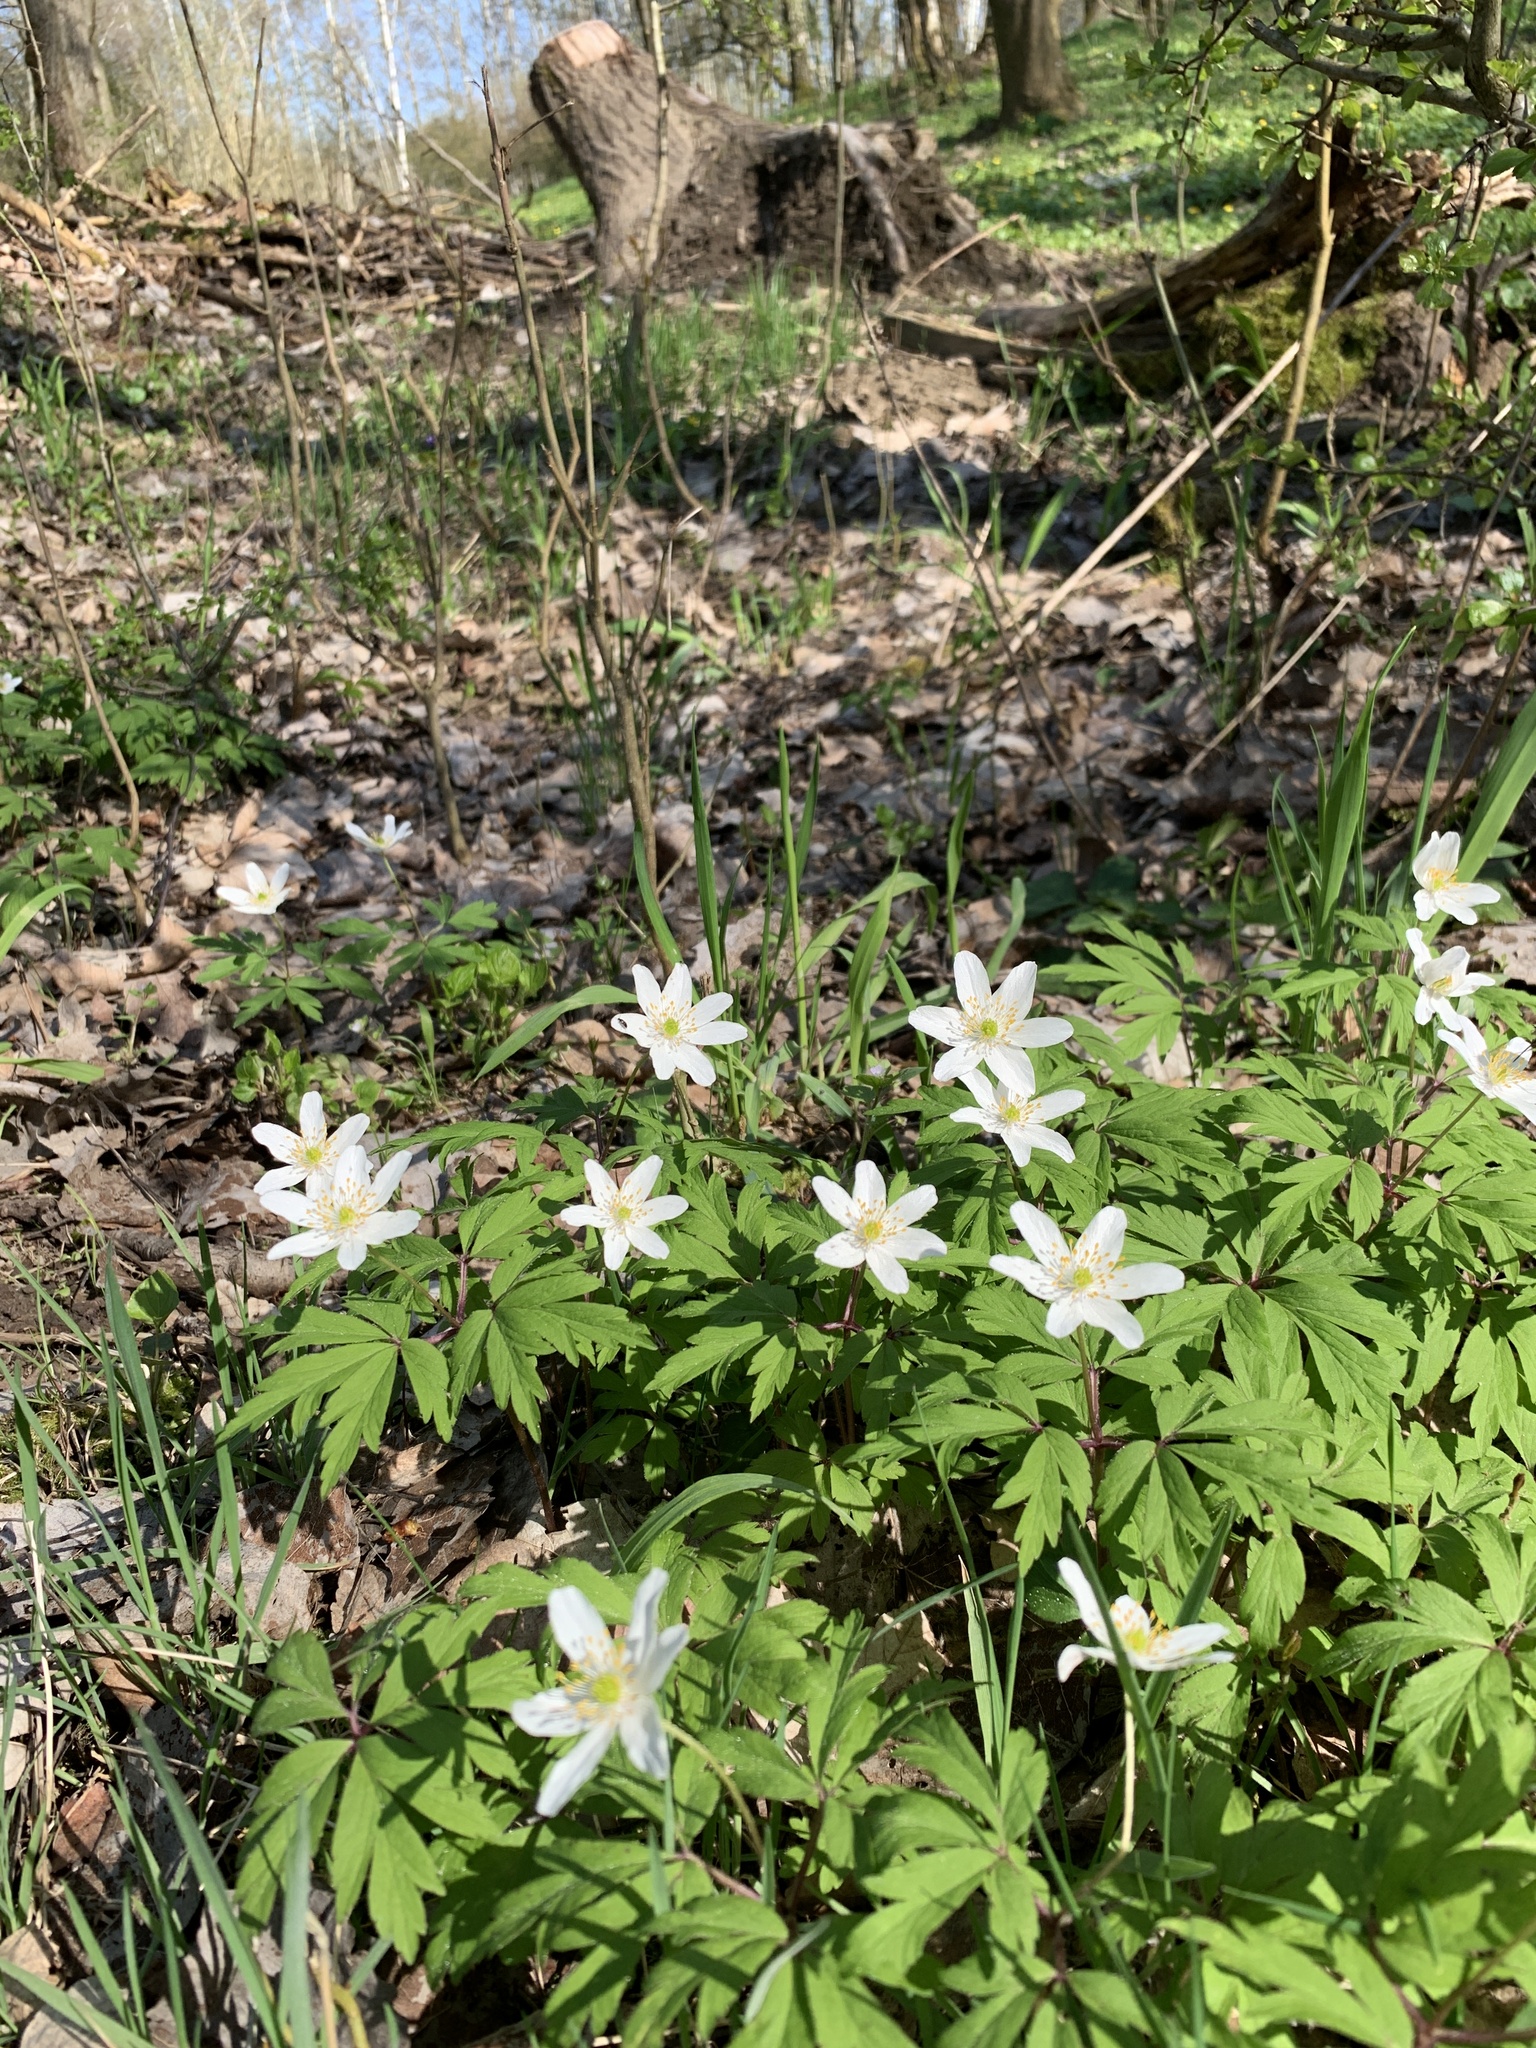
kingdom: Plantae
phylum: Tracheophyta
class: Magnoliopsida
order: Ranunculales
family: Ranunculaceae
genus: Anemone
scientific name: Anemone nemorosa
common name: Wood anemone
